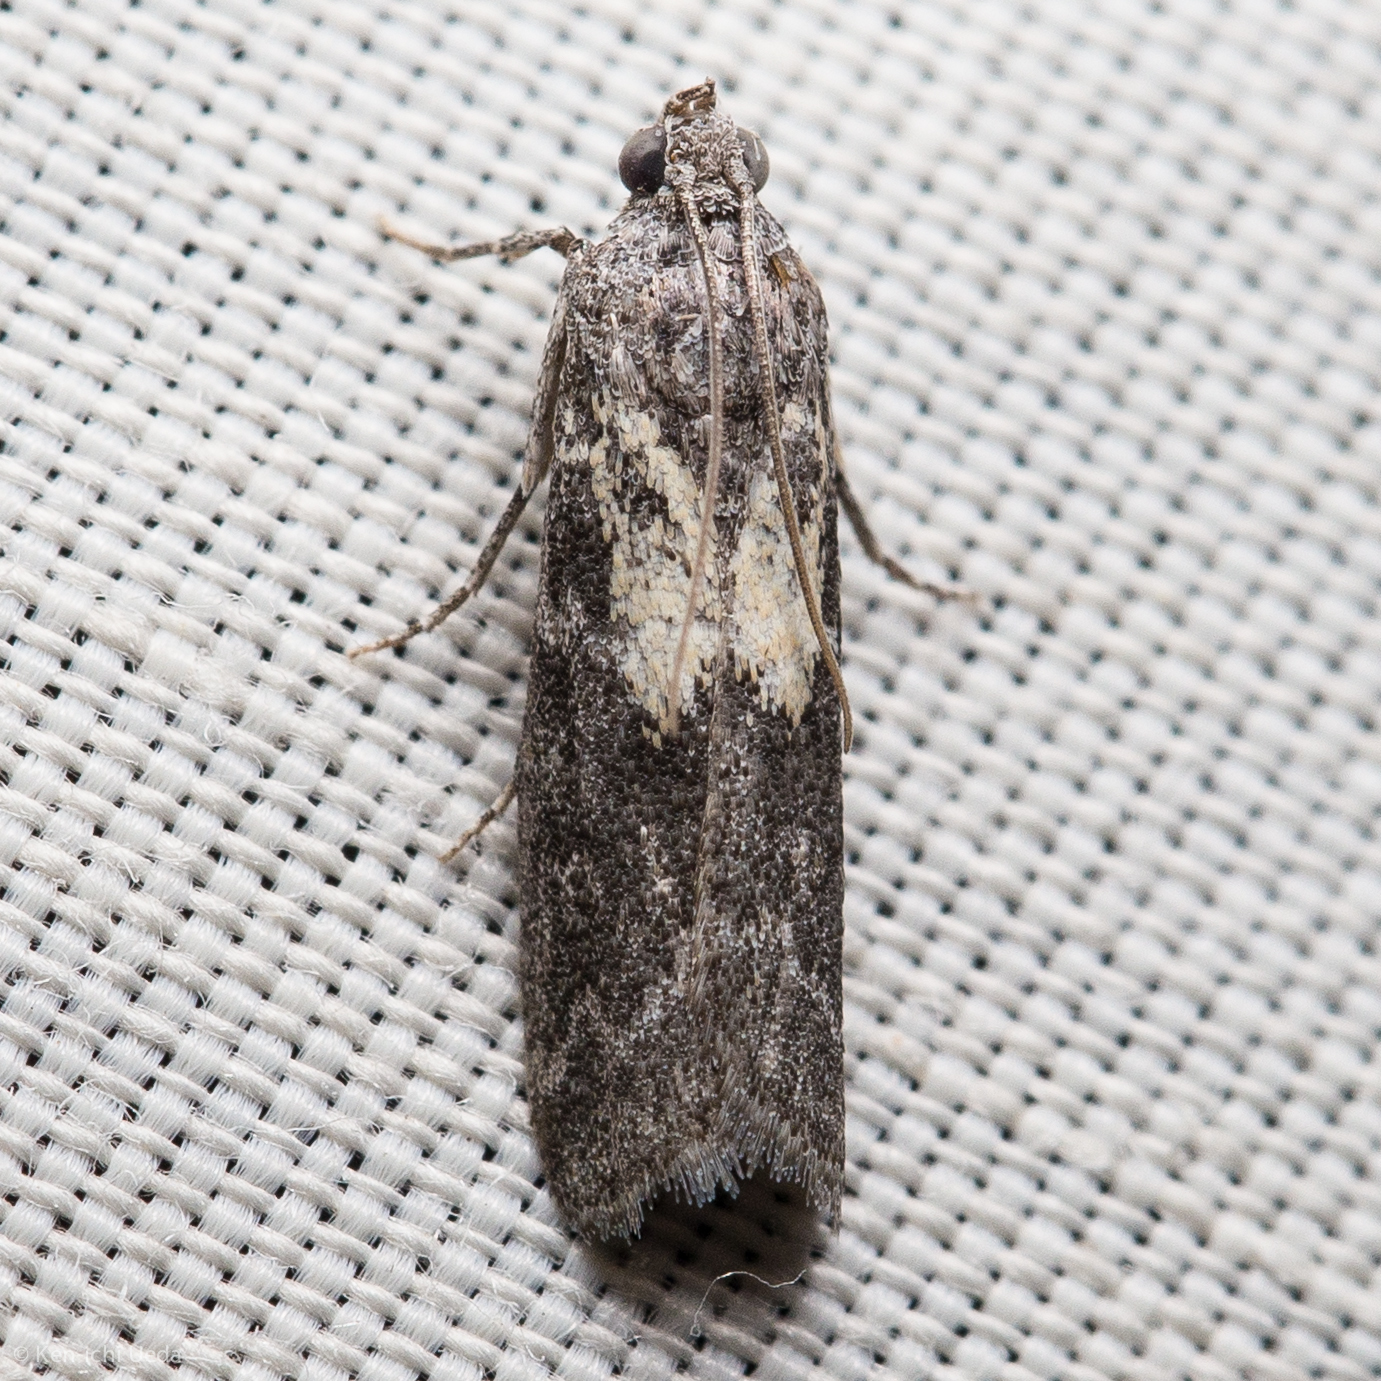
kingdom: Animalia
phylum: Arthropoda
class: Insecta
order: Lepidoptera
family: Pyralidae
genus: Tacoma
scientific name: Tacoma feriella
